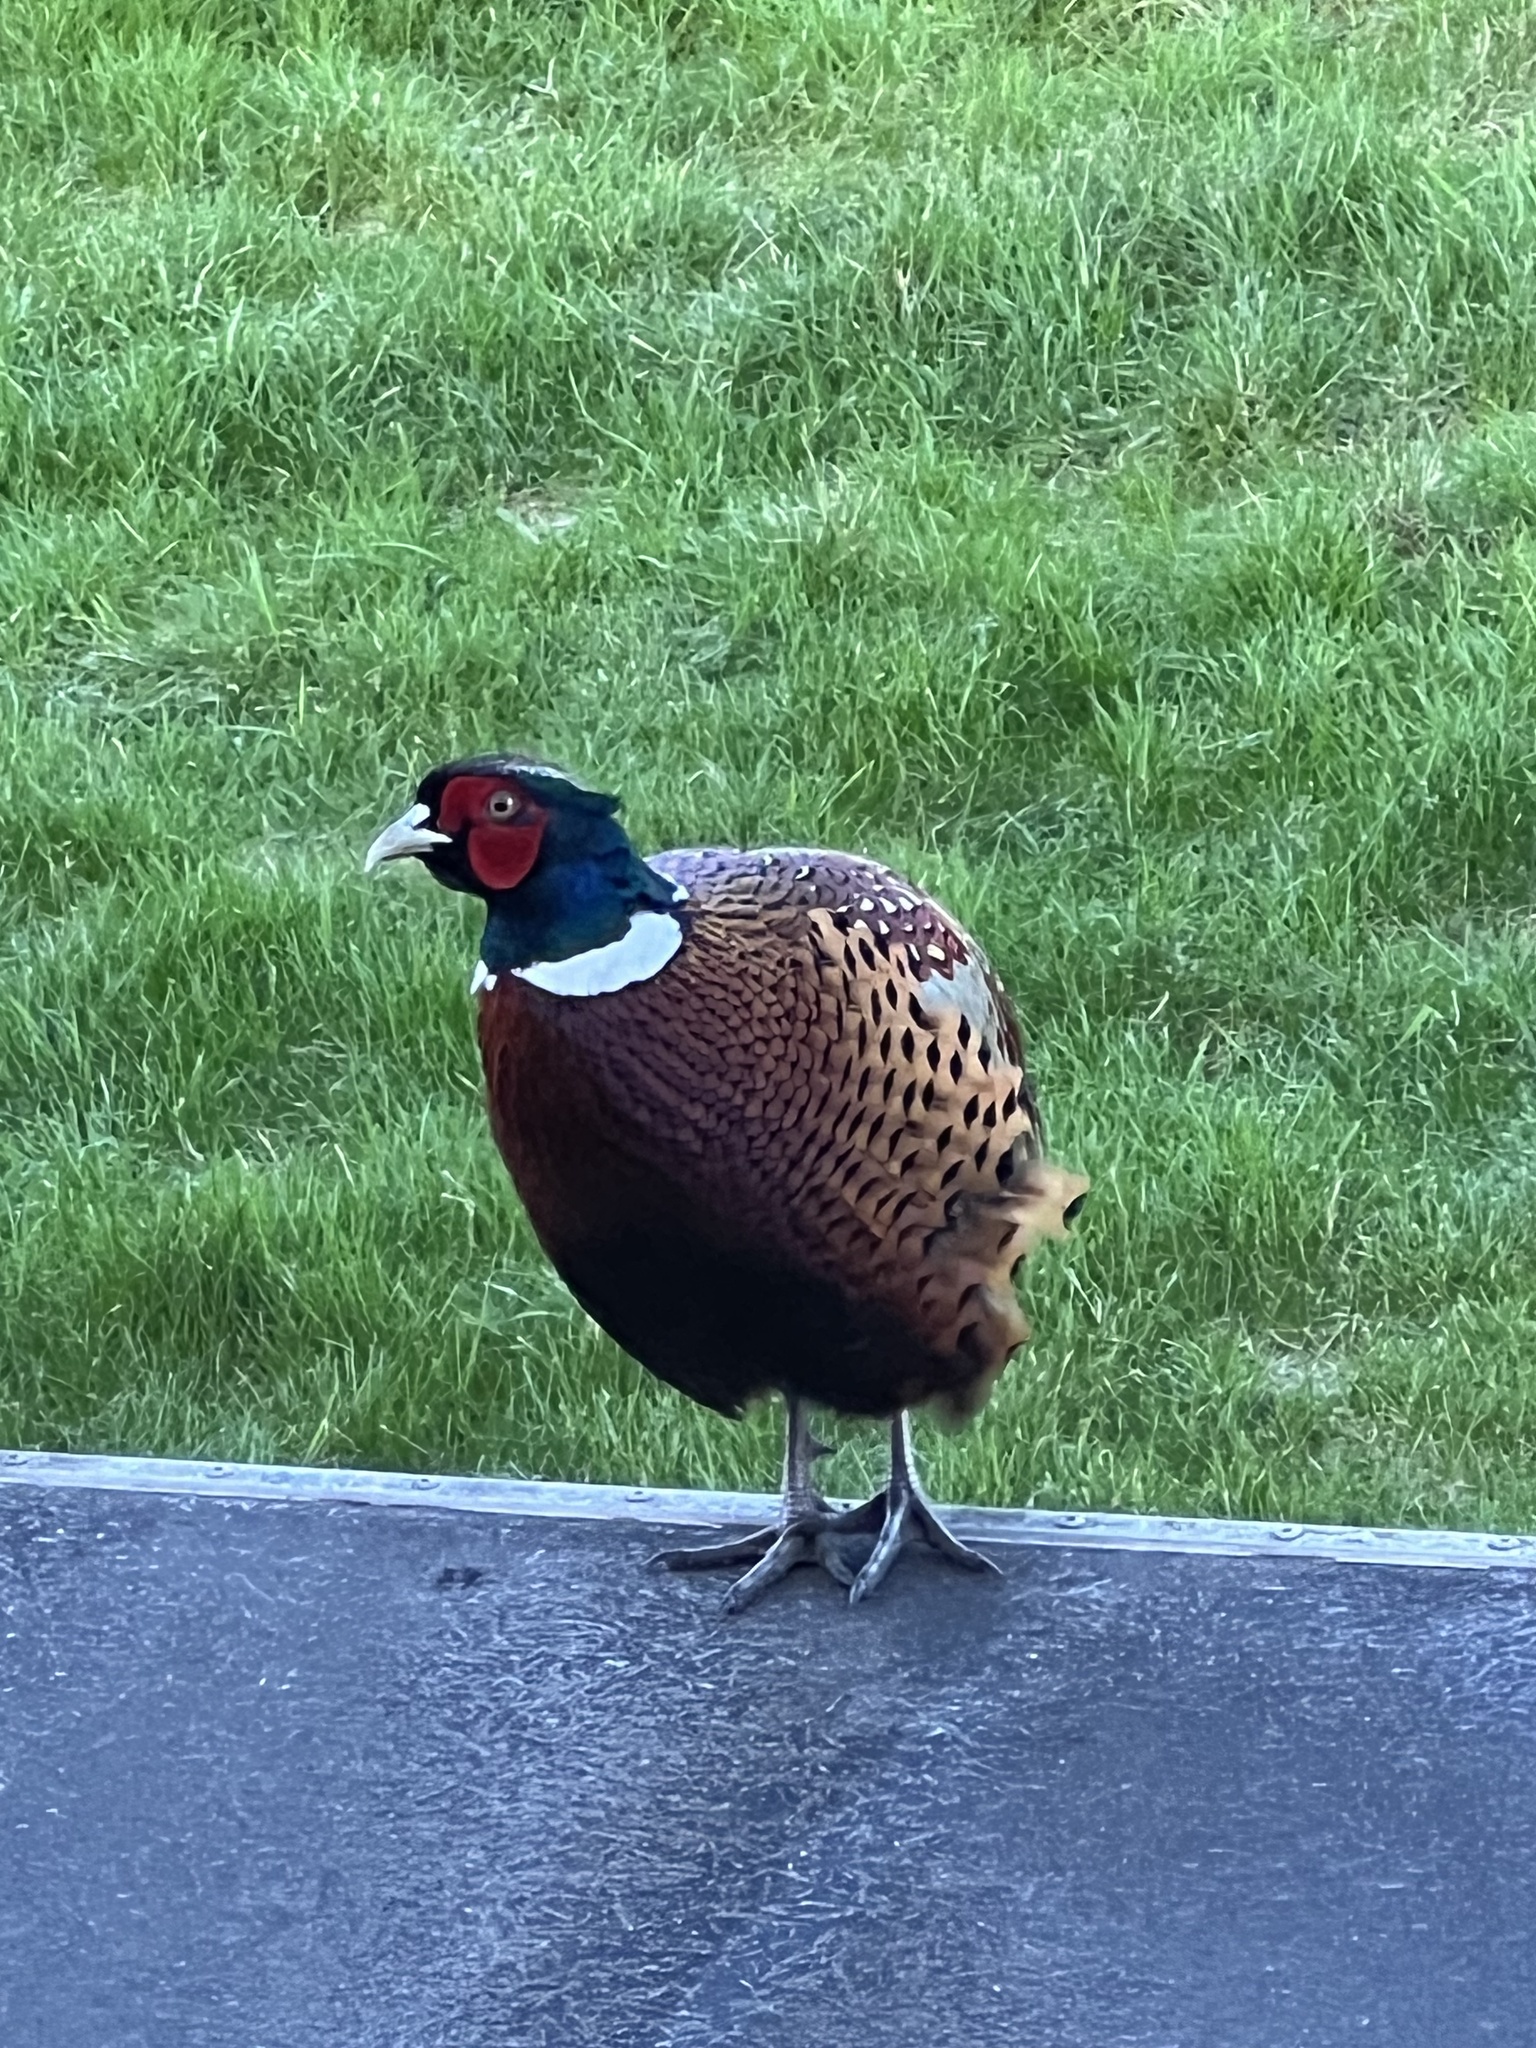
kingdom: Animalia
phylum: Chordata
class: Aves
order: Galliformes
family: Phasianidae
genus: Phasianus
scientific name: Phasianus colchicus
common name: Common pheasant
